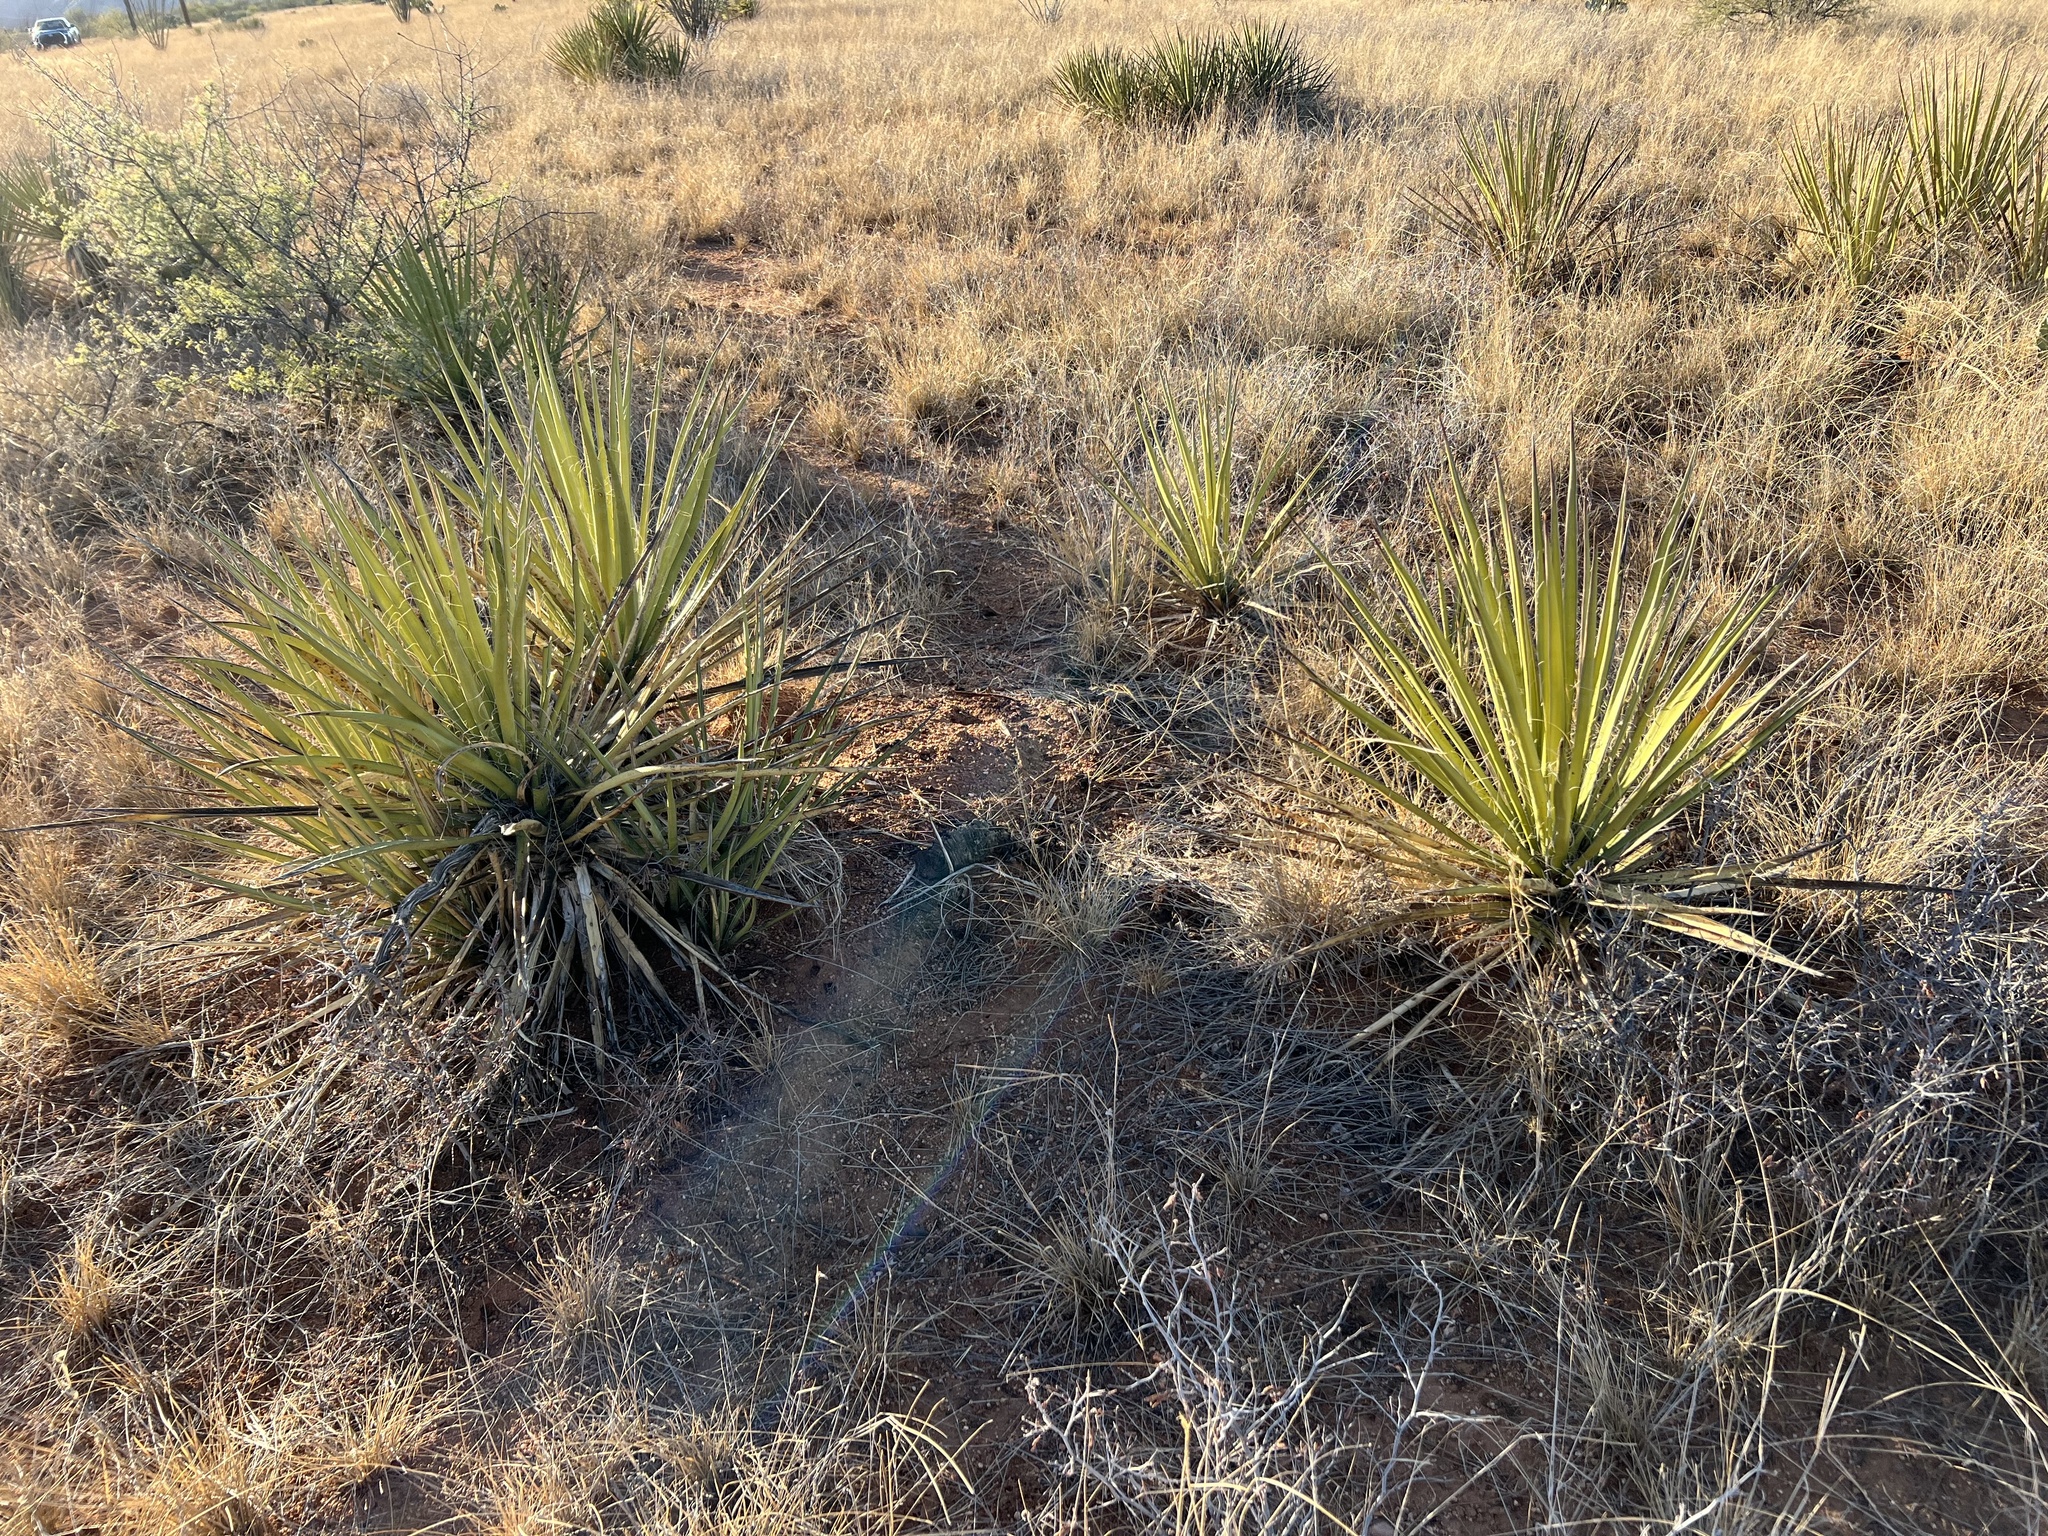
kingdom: Plantae
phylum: Tracheophyta
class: Liliopsida
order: Asparagales
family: Asparagaceae
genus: Yucca
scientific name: Yucca baccata
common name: Banana yucca
